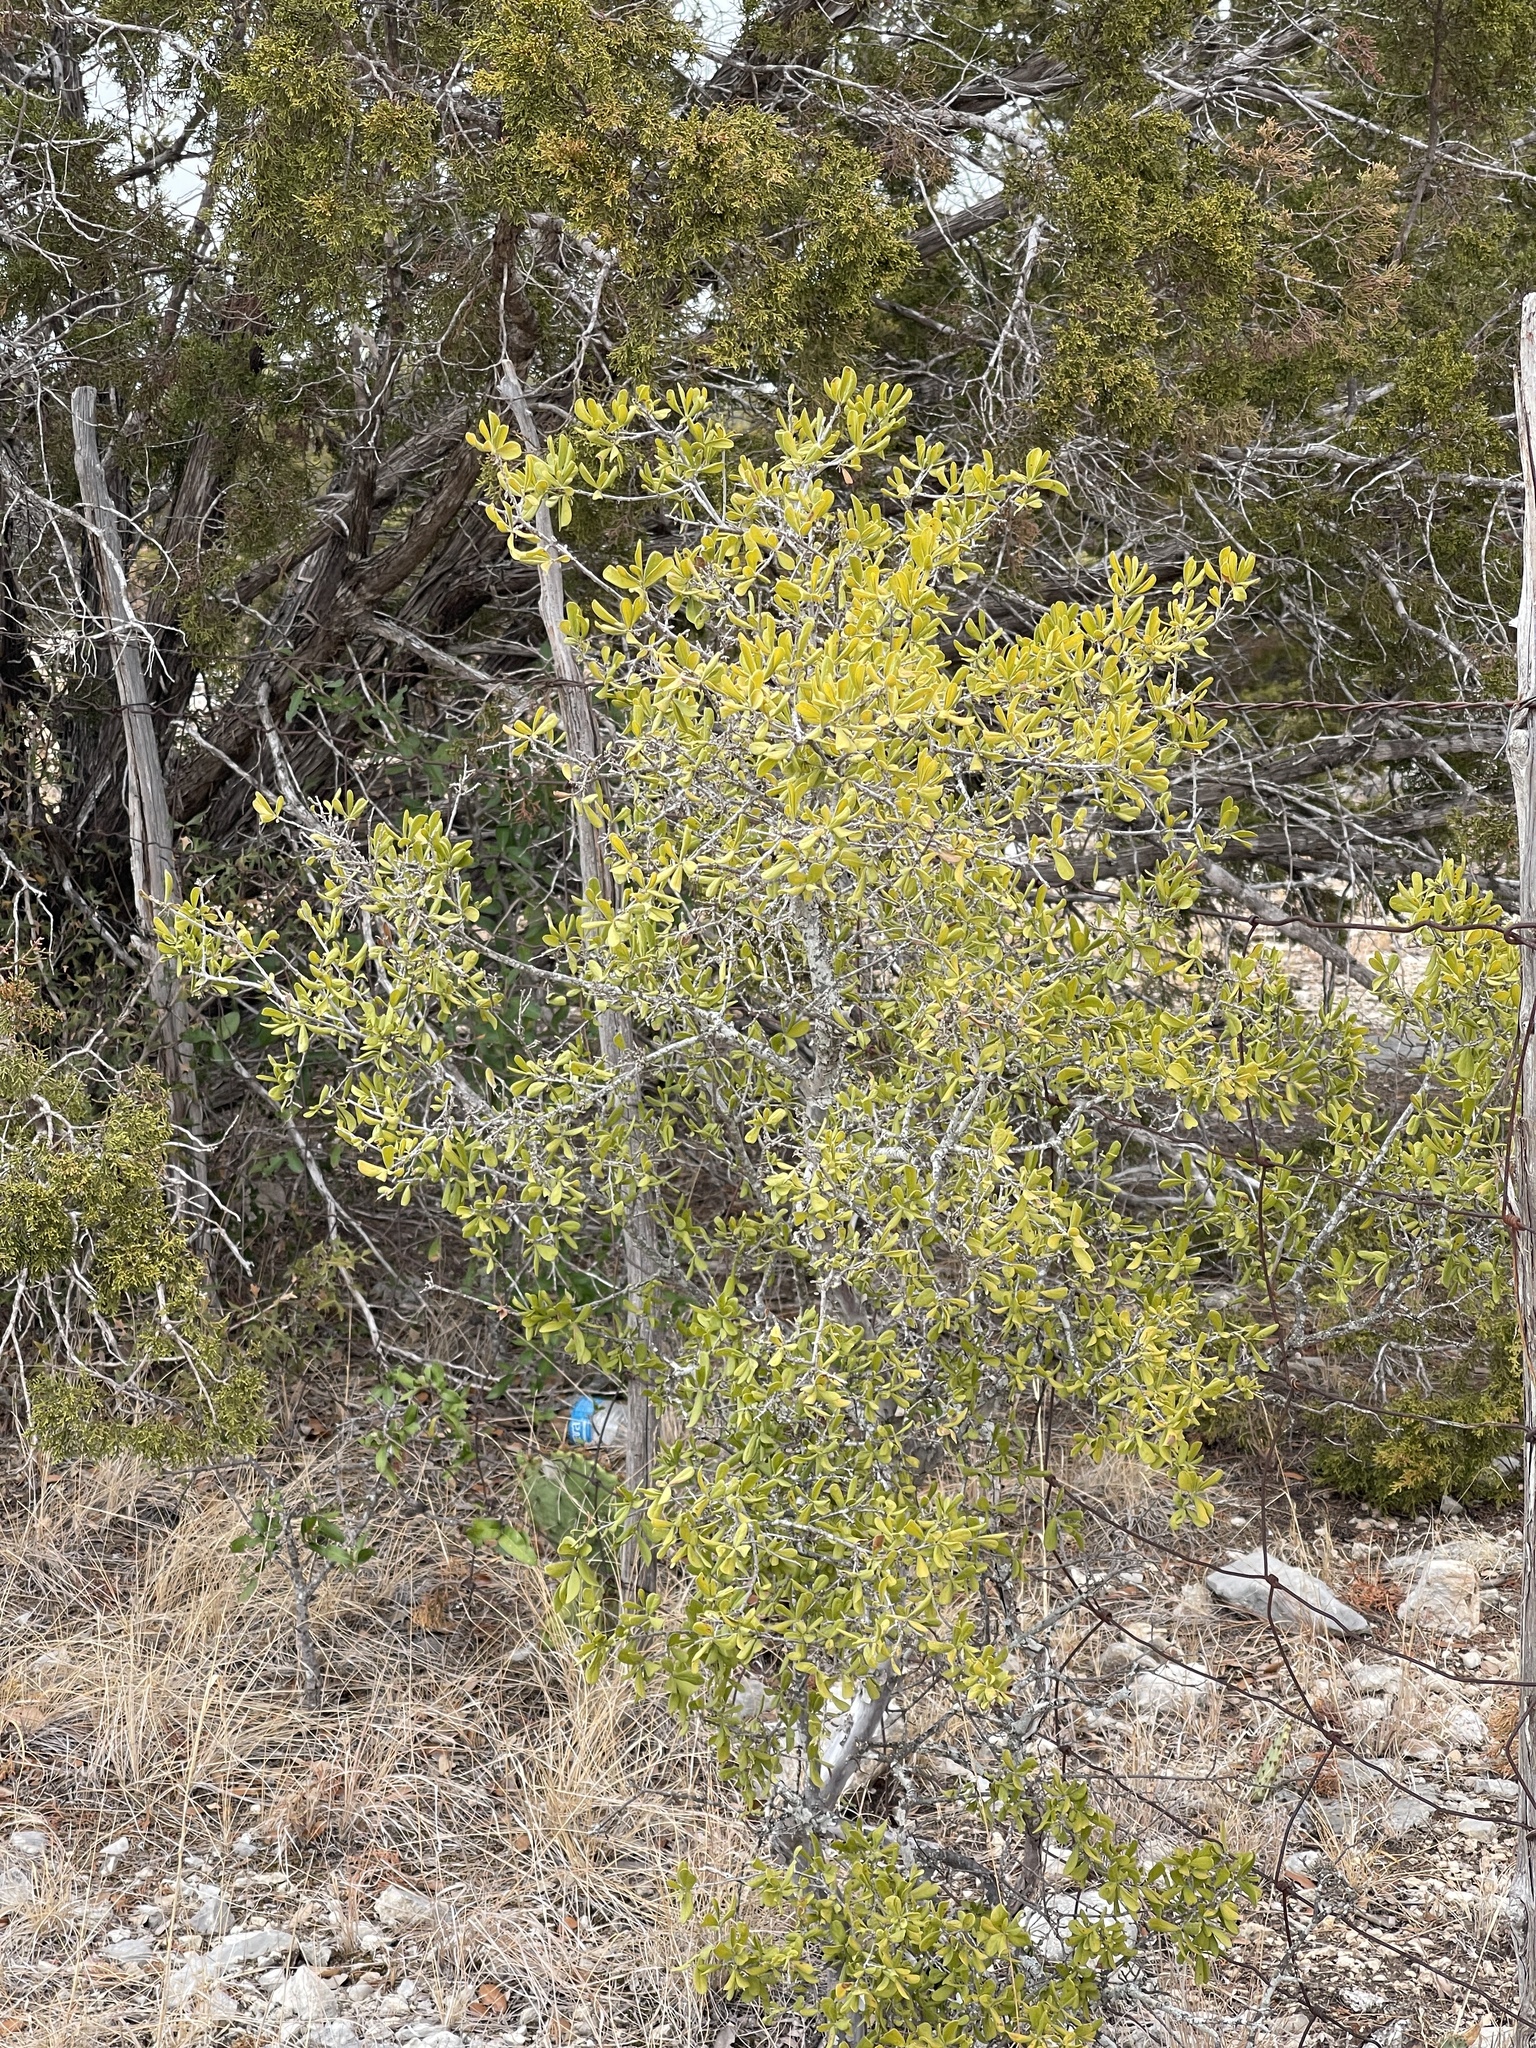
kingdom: Plantae
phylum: Tracheophyta
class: Magnoliopsida
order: Ericales
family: Ebenaceae
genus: Diospyros
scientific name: Diospyros texana
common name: Texas persimmon
